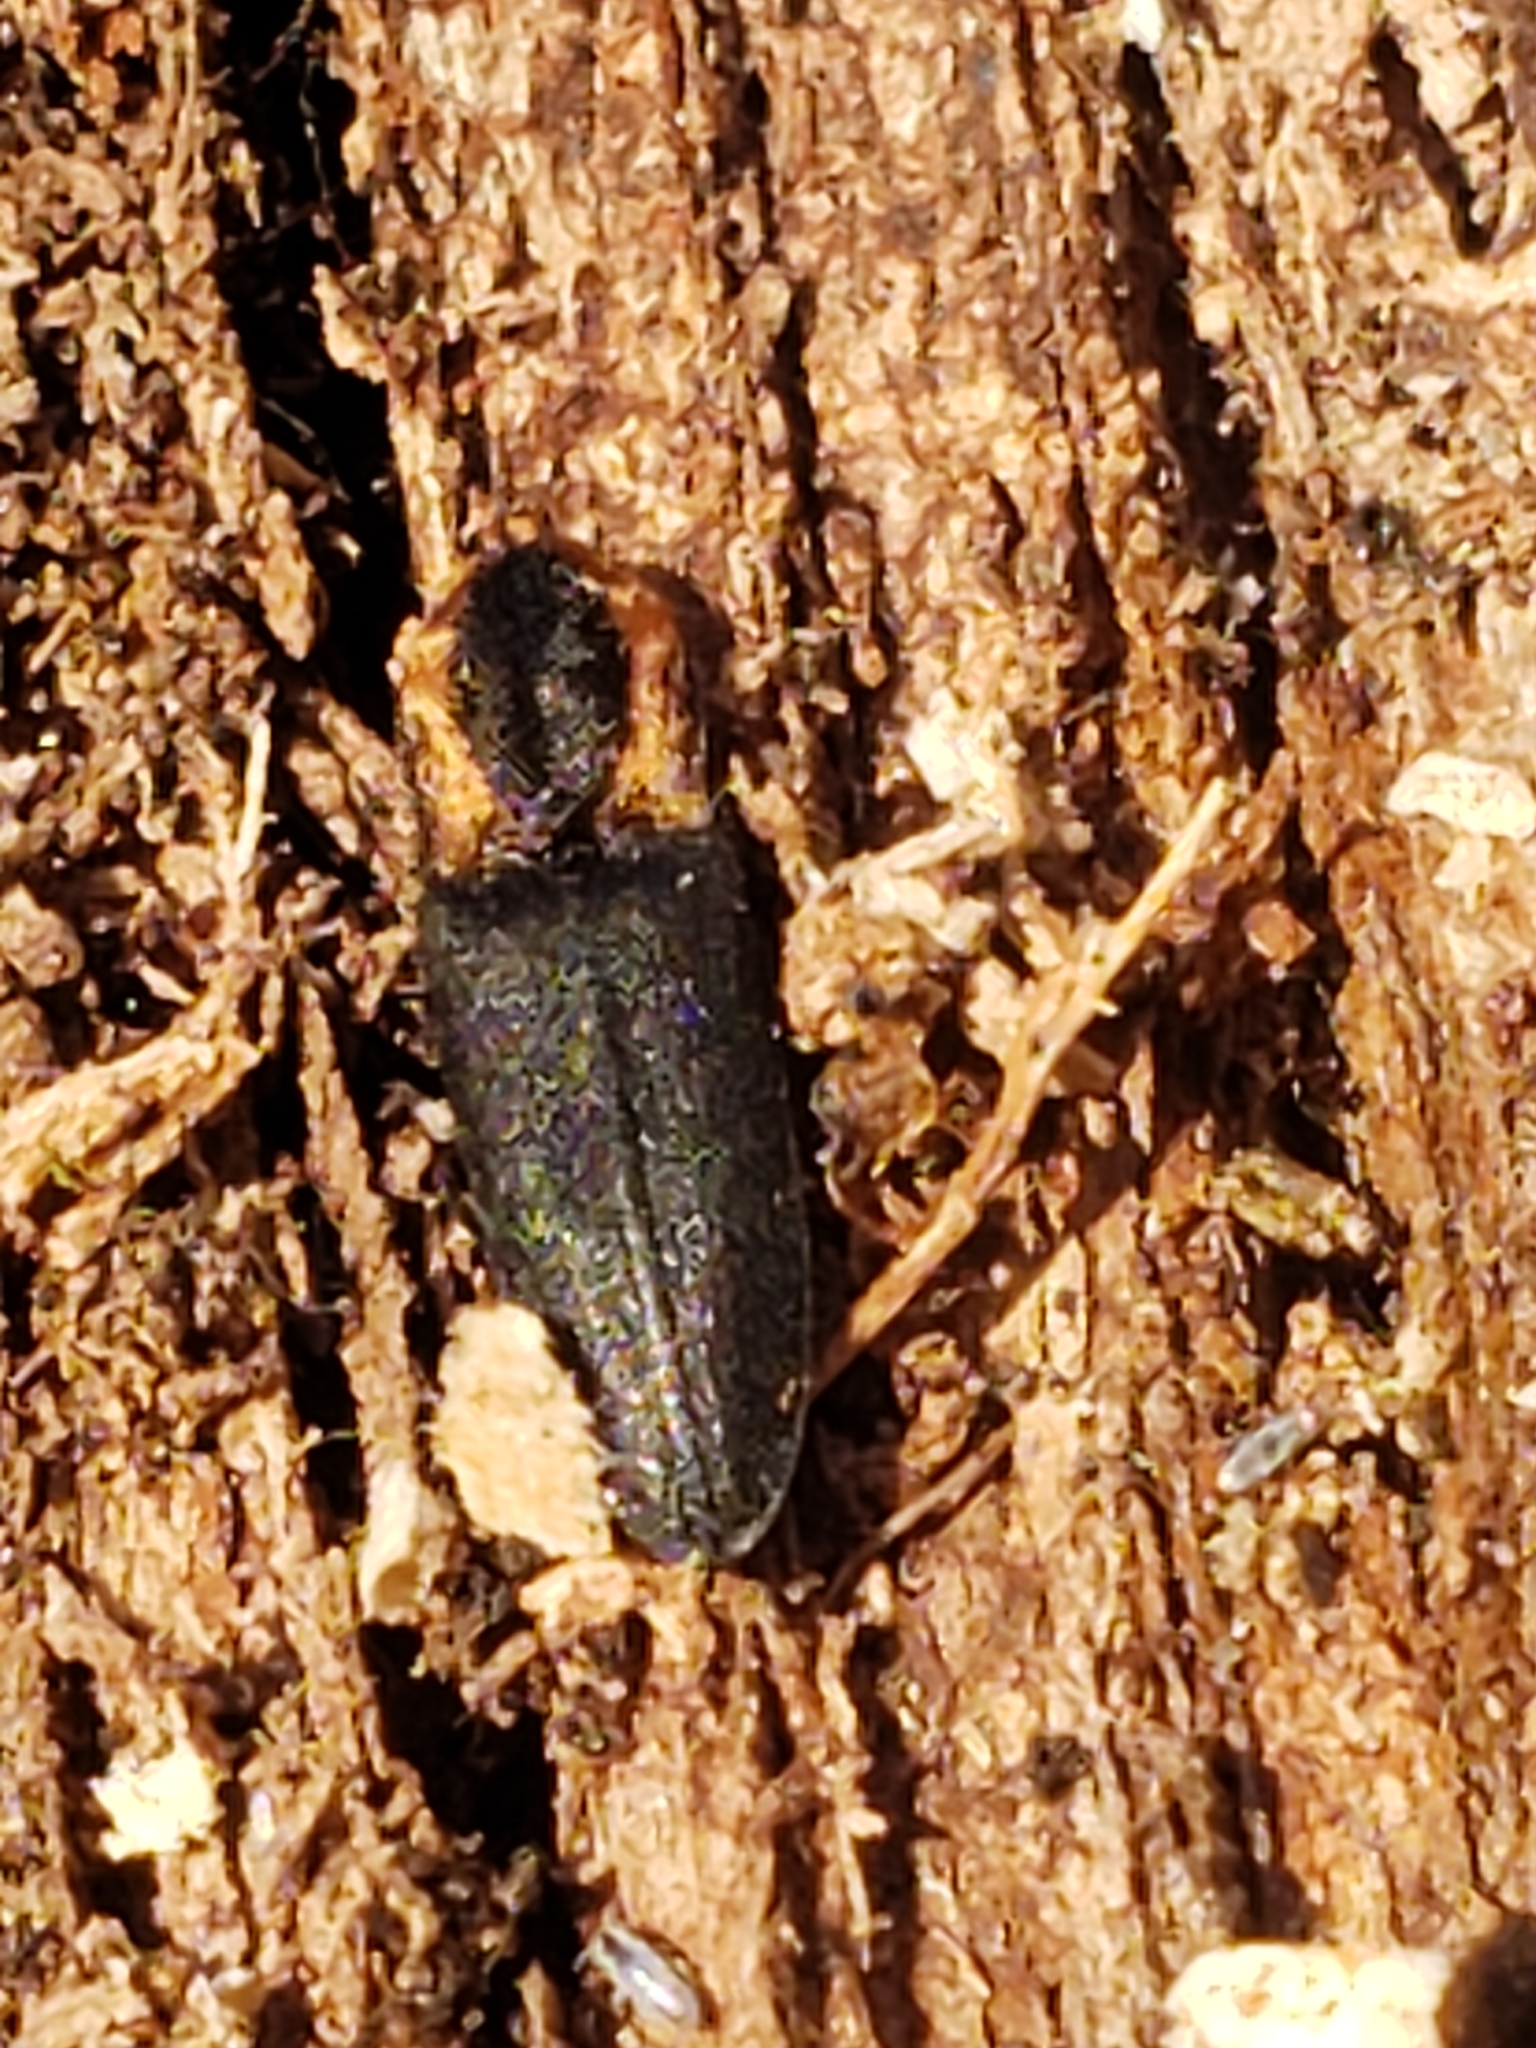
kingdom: Animalia
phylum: Arthropoda
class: Insecta
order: Coleoptera
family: Elateridae
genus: Lacon
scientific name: Lacon discoideus
